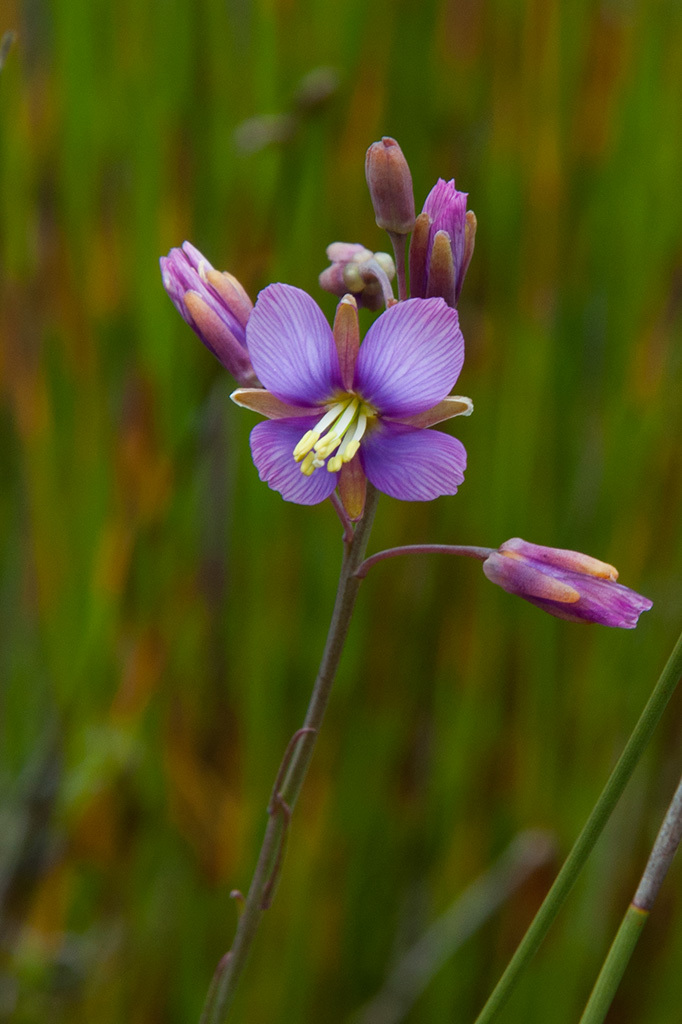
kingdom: Plantae
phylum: Tracheophyta
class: Magnoliopsida
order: Brassicales
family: Brassicaceae
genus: Heliophila
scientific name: Heliophila linearis
